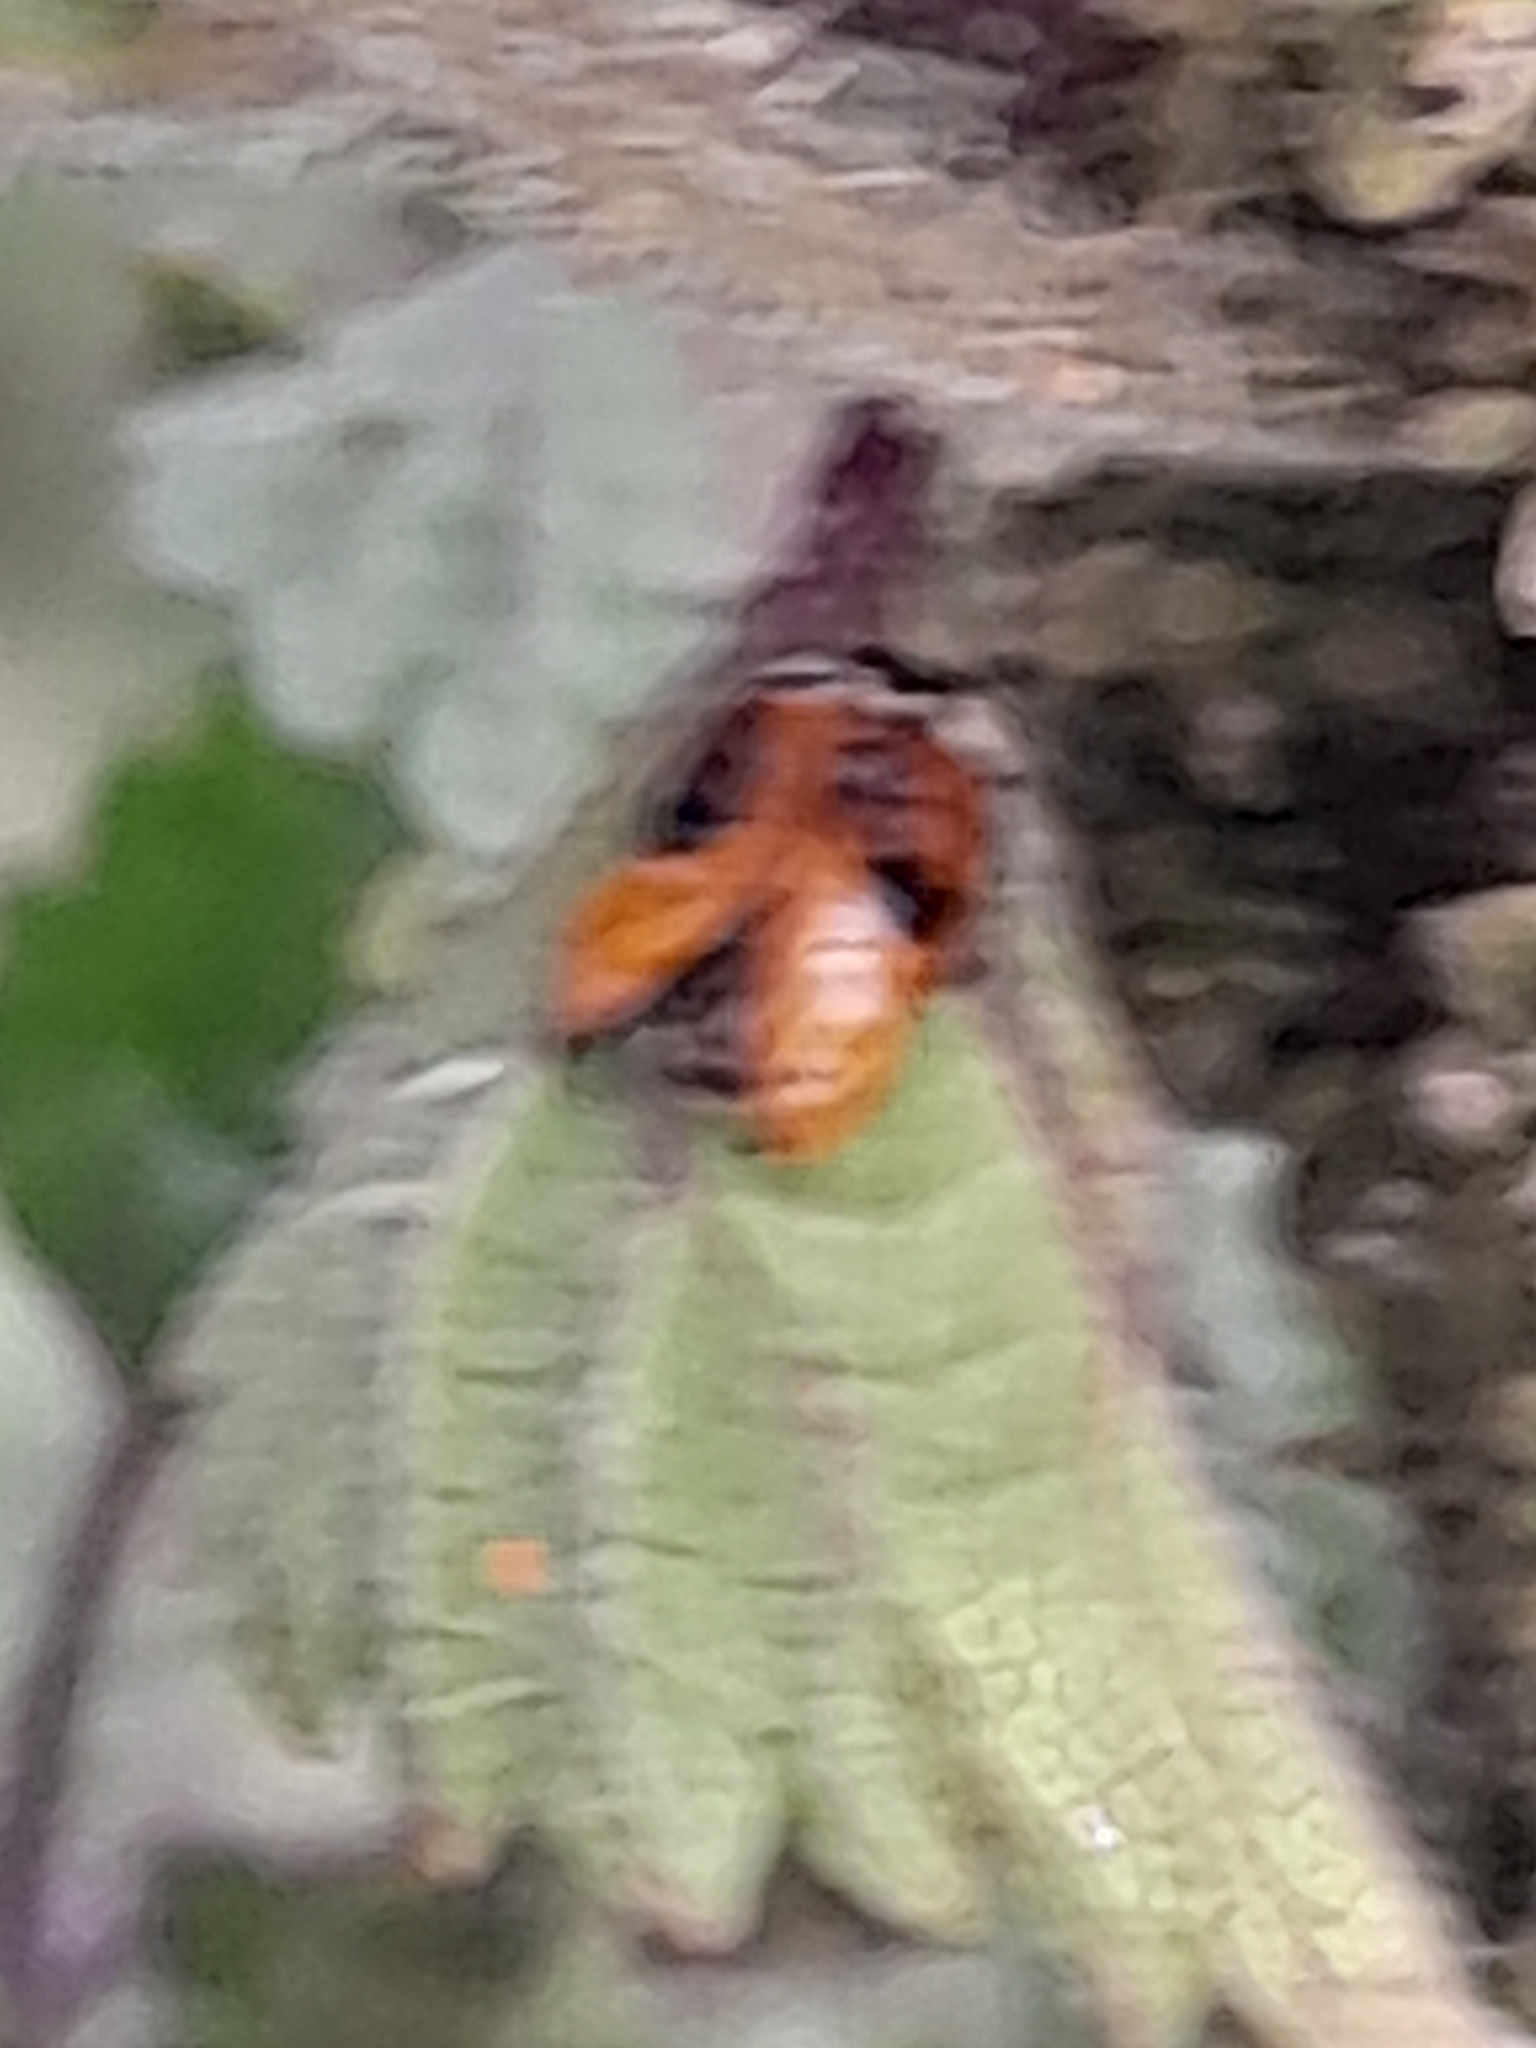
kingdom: Animalia
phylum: Arthropoda
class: Insecta
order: Coleoptera
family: Coccinellidae
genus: Adalia
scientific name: Adalia bipunctata
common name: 2-spot ladybird
